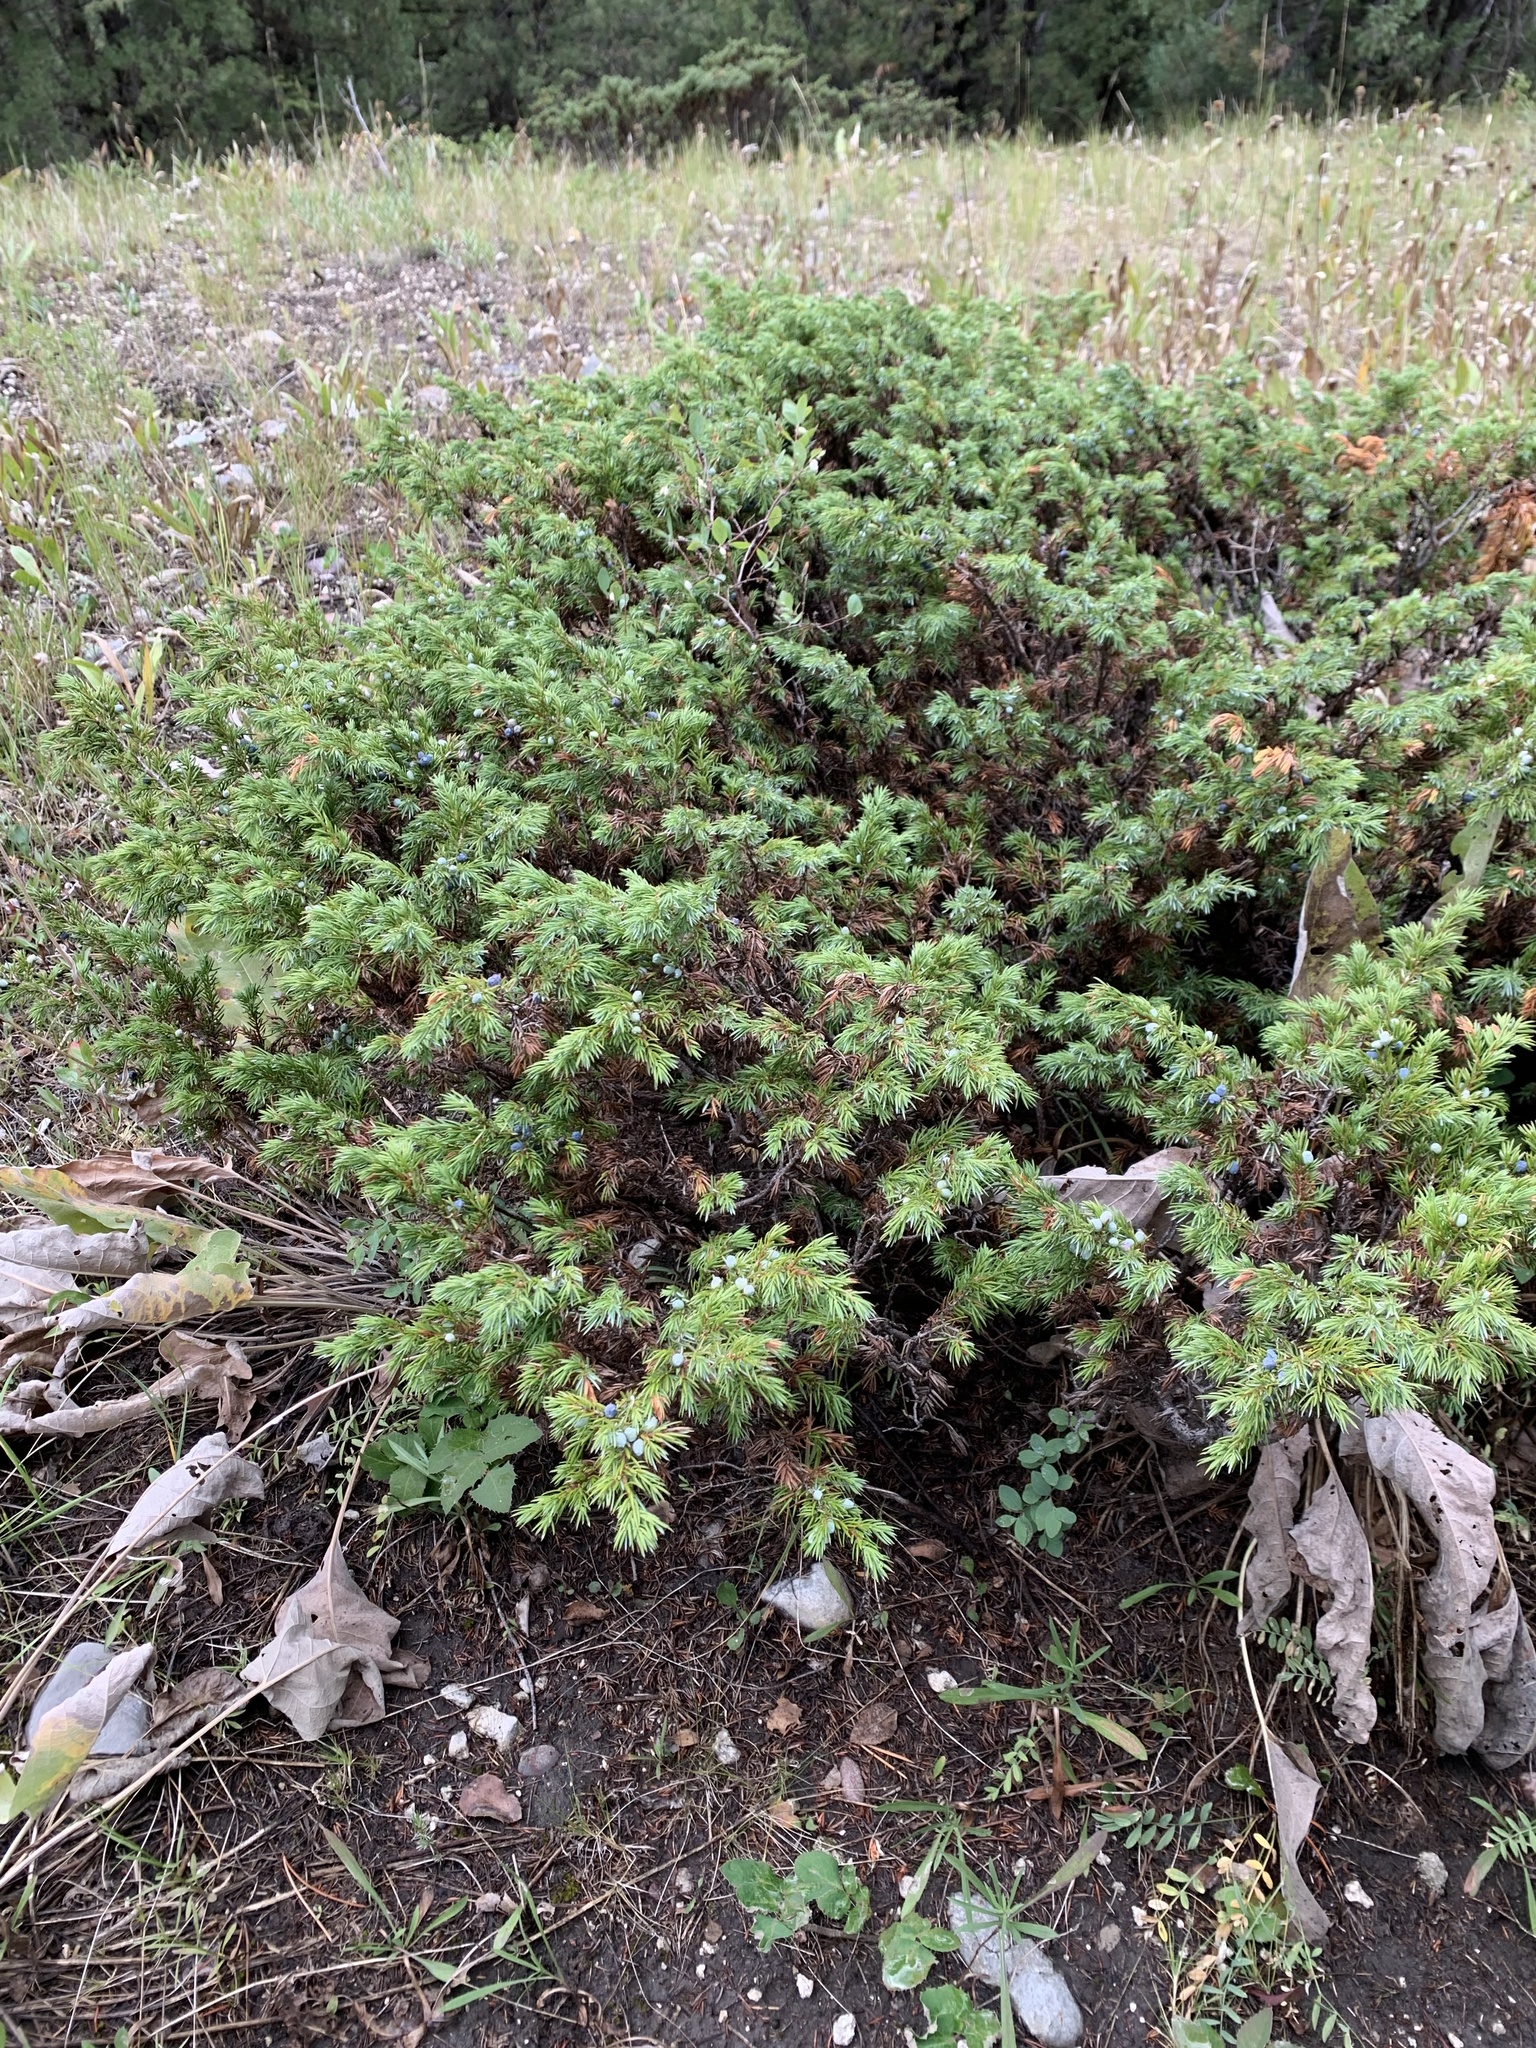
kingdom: Plantae
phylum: Tracheophyta
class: Pinopsida
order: Pinales
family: Cupressaceae
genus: Juniperus
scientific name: Juniperus communis
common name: Common juniper
